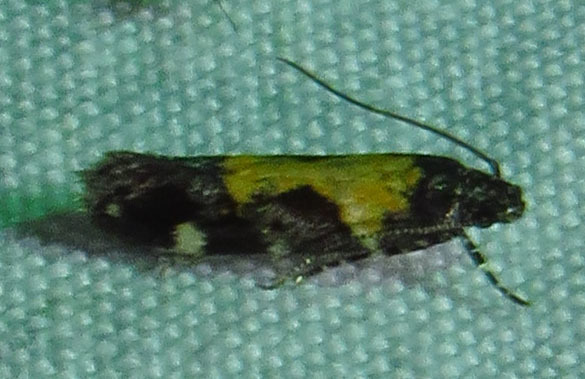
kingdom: Animalia
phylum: Arthropoda
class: Insecta
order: Lepidoptera
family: Gelechiidae
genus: Stegasta
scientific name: Stegasta bosqueella
